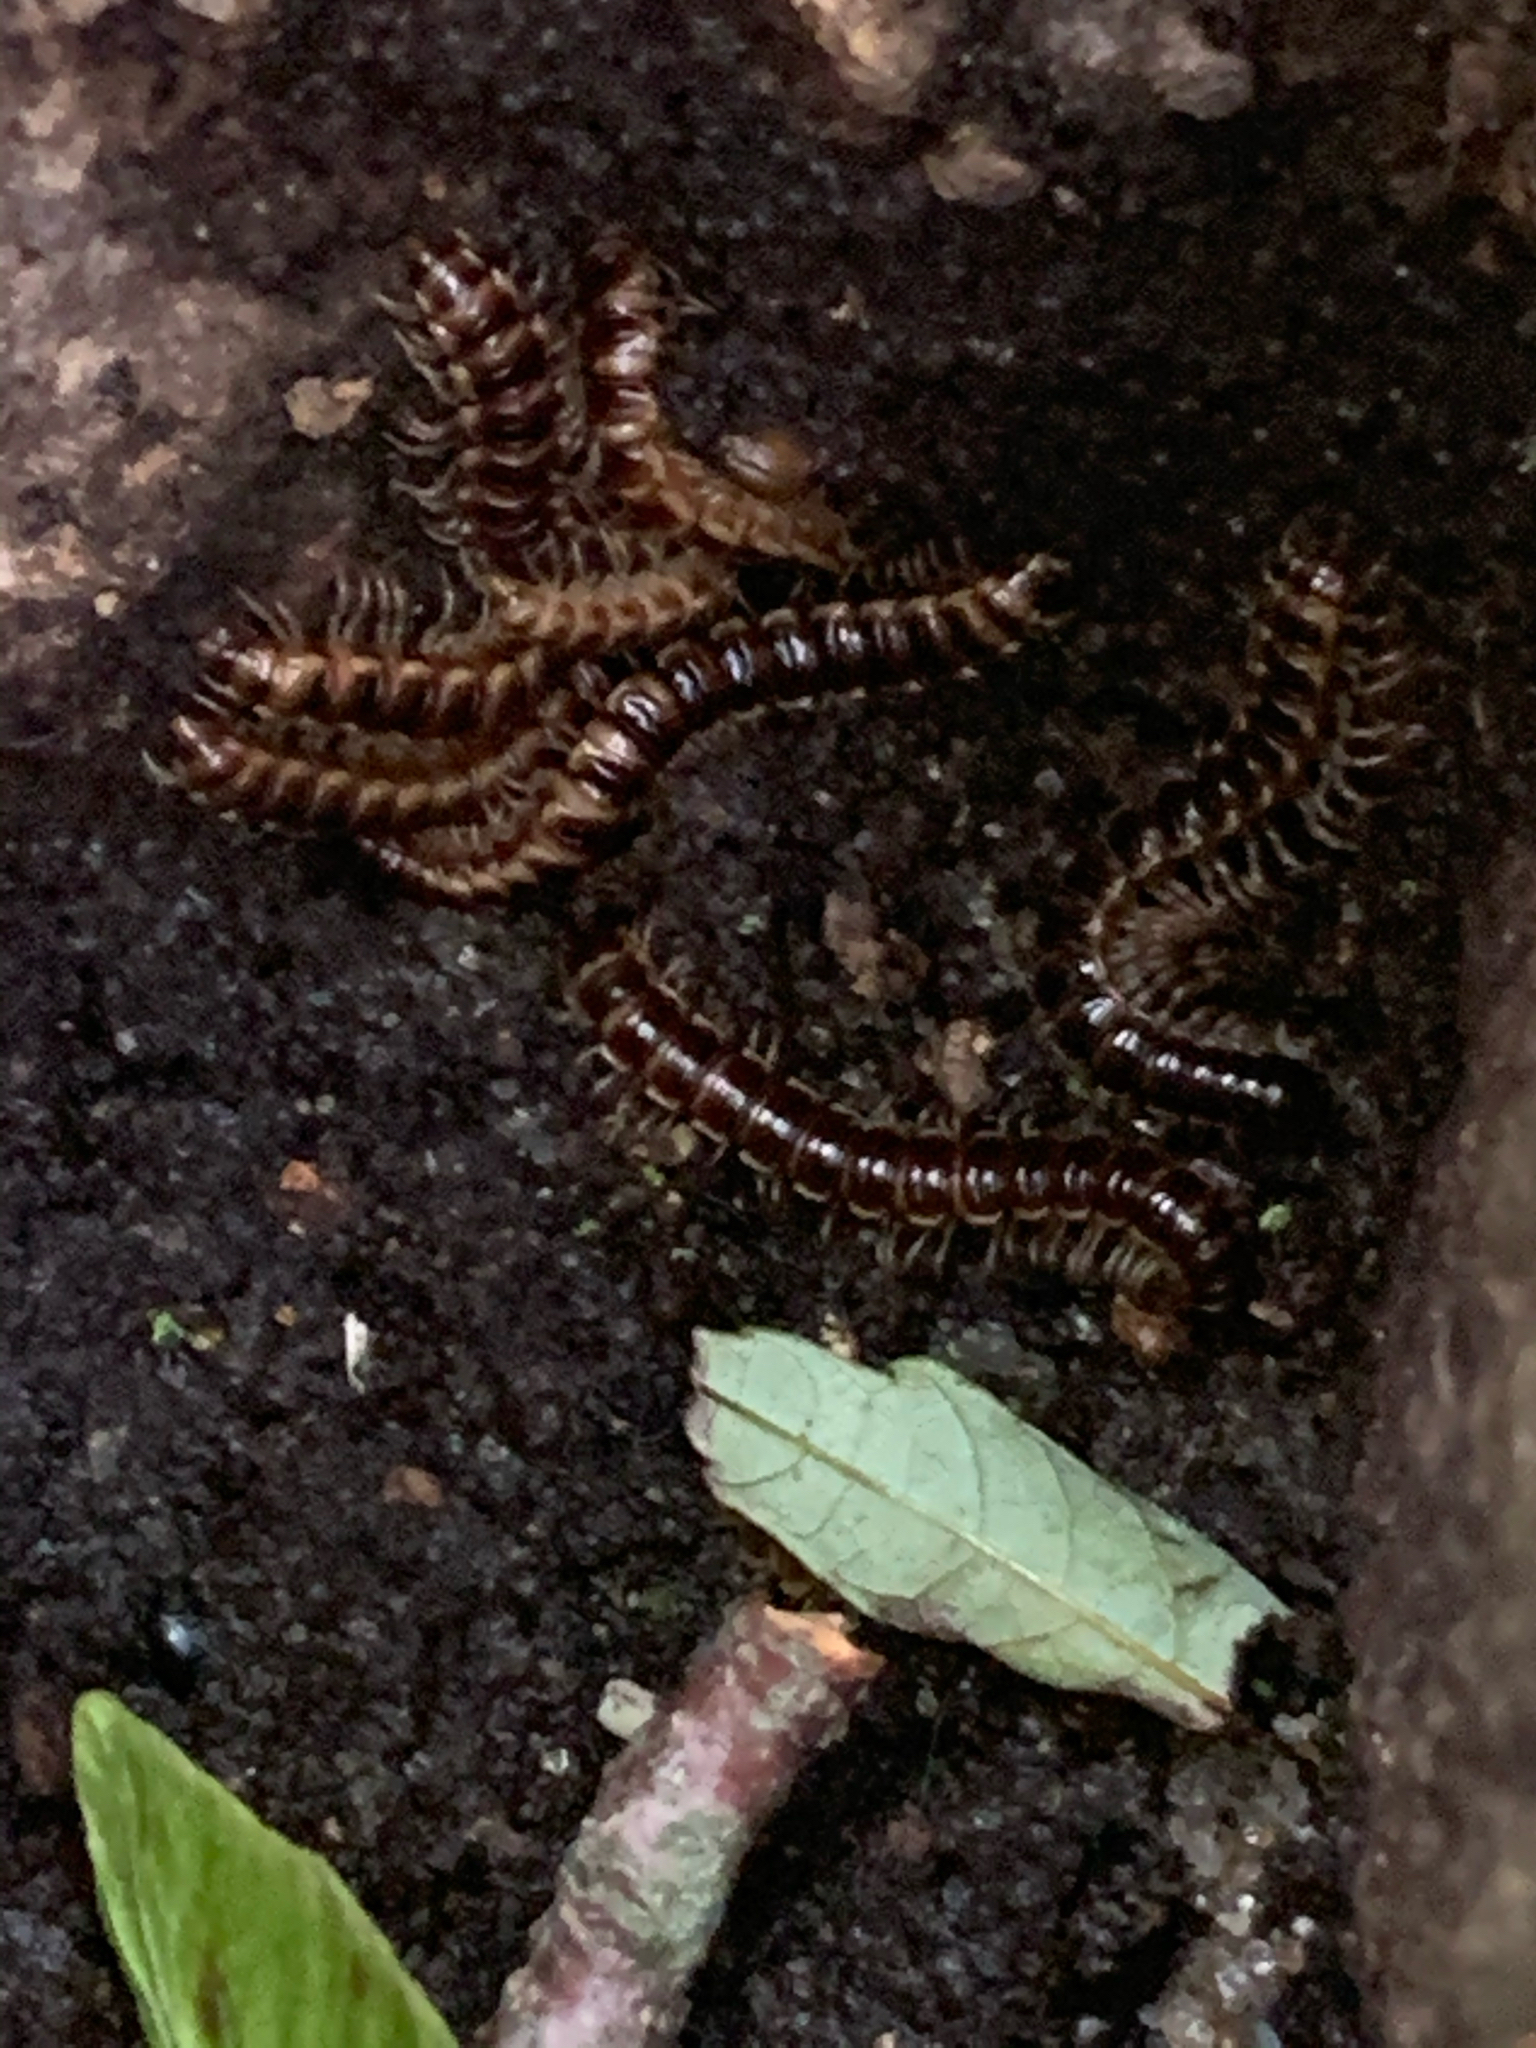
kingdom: Animalia
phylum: Arthropoda
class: Diplopoda
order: Polydesmida
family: Paradoxosomatidae
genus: Oxidus
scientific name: Oxidus gracilis
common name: Greenhouse millipede
